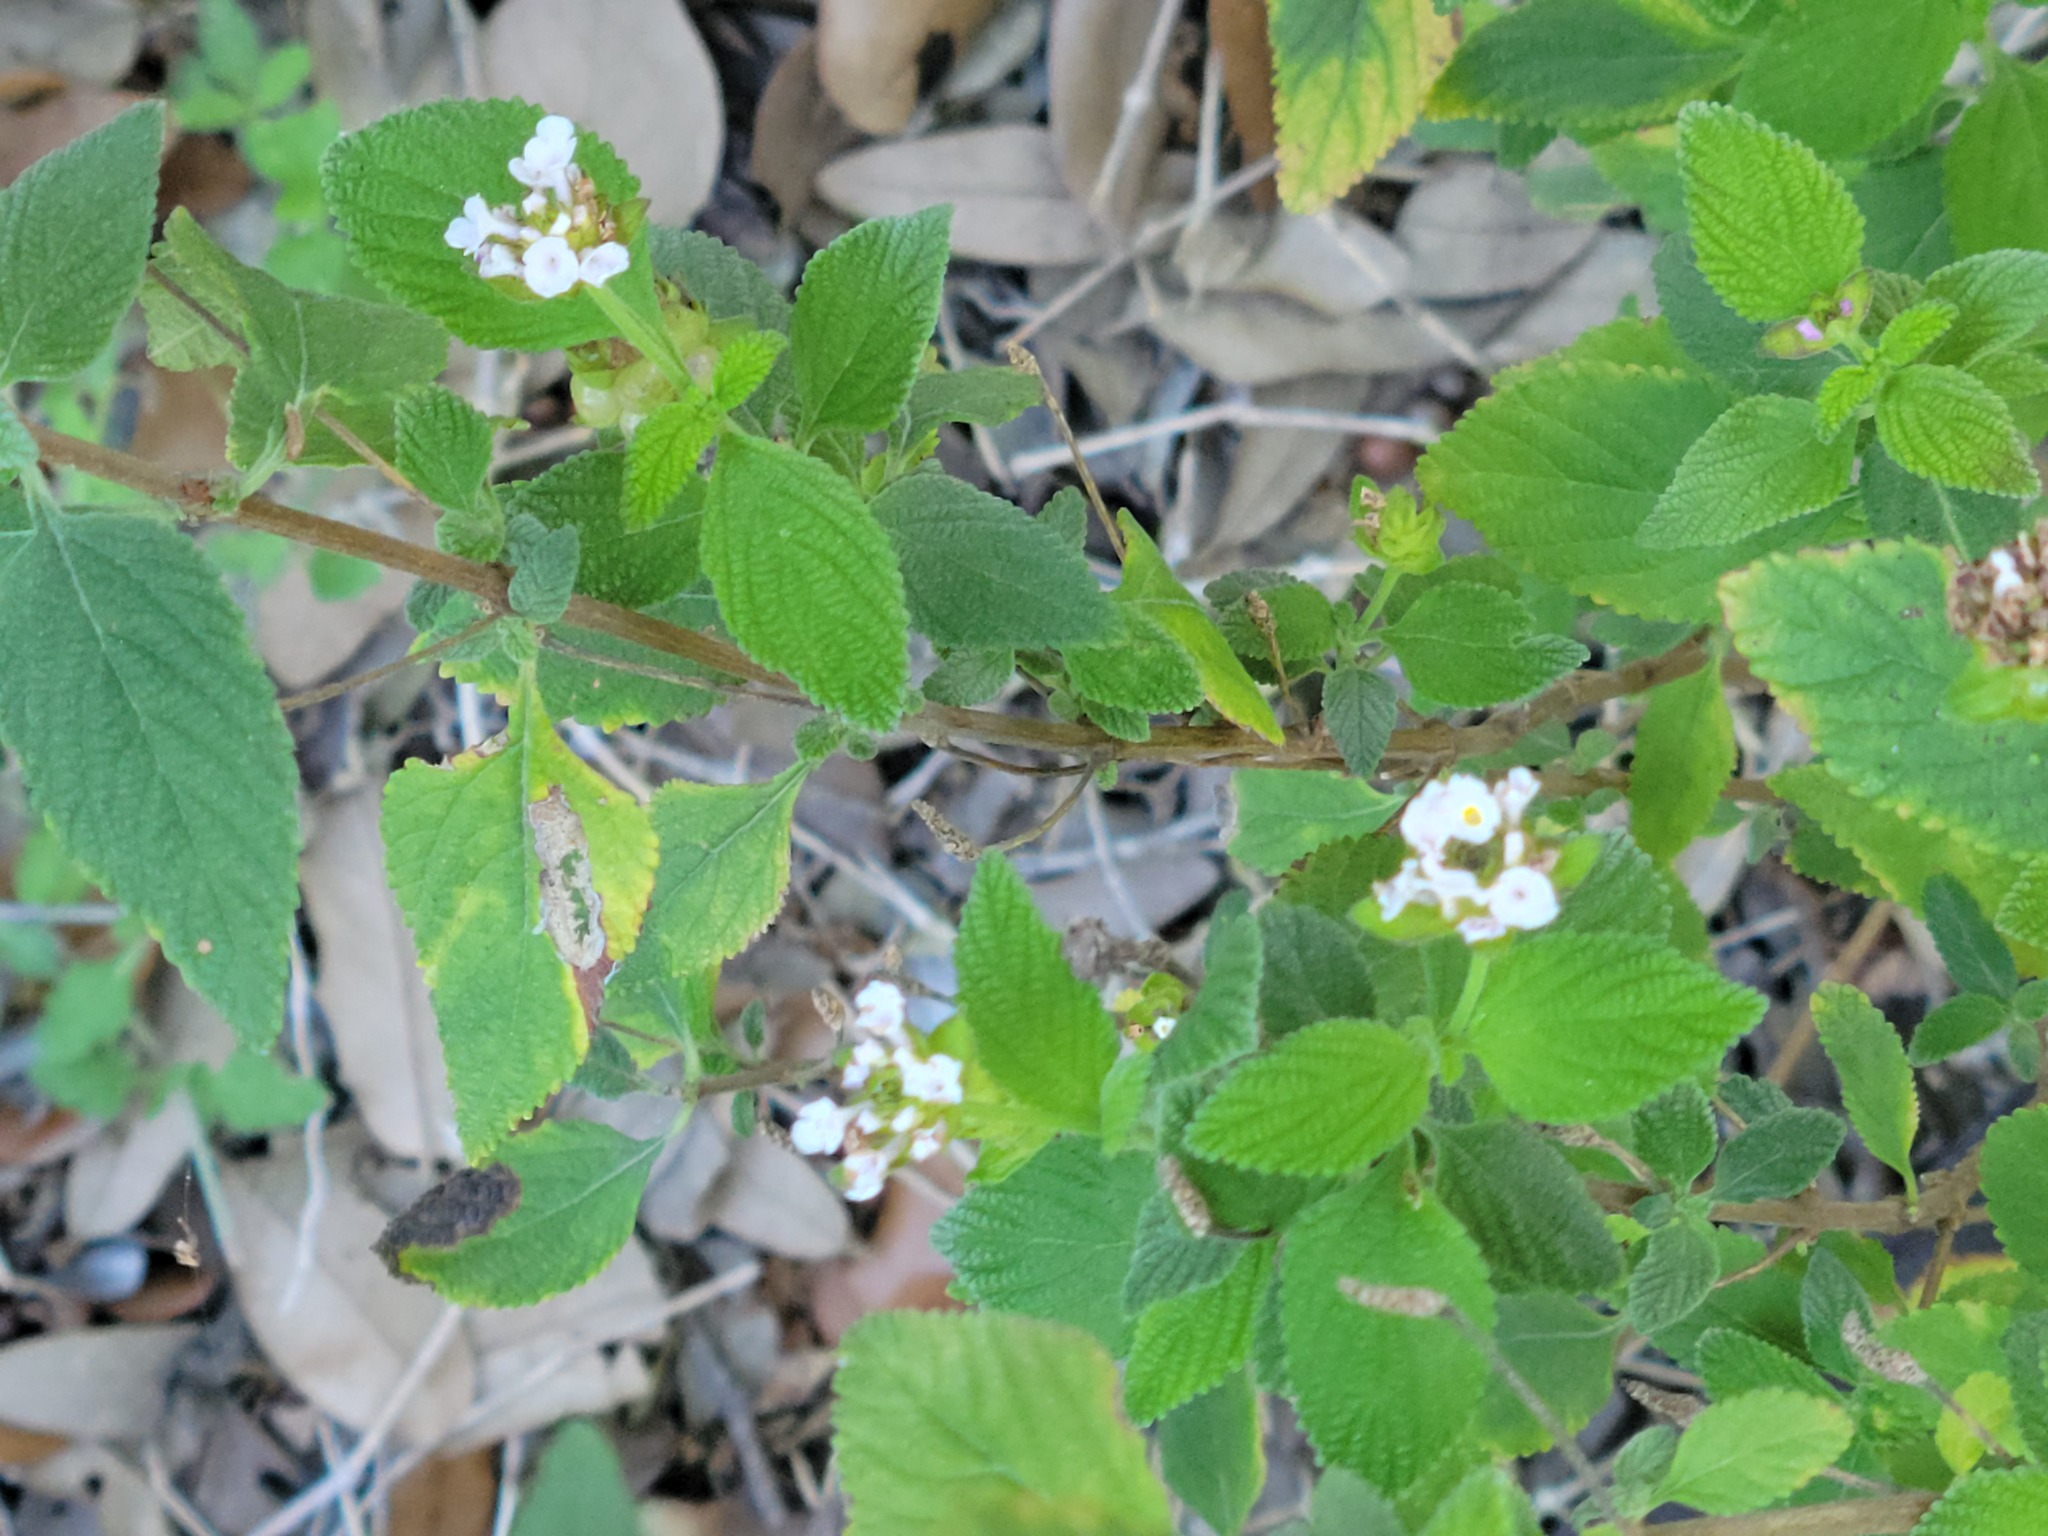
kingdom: Plantae
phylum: Tracheophyta
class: Magnoliopsida
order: Lamiales
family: Verbenaceae
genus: Lantana
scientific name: Lantana velutina
